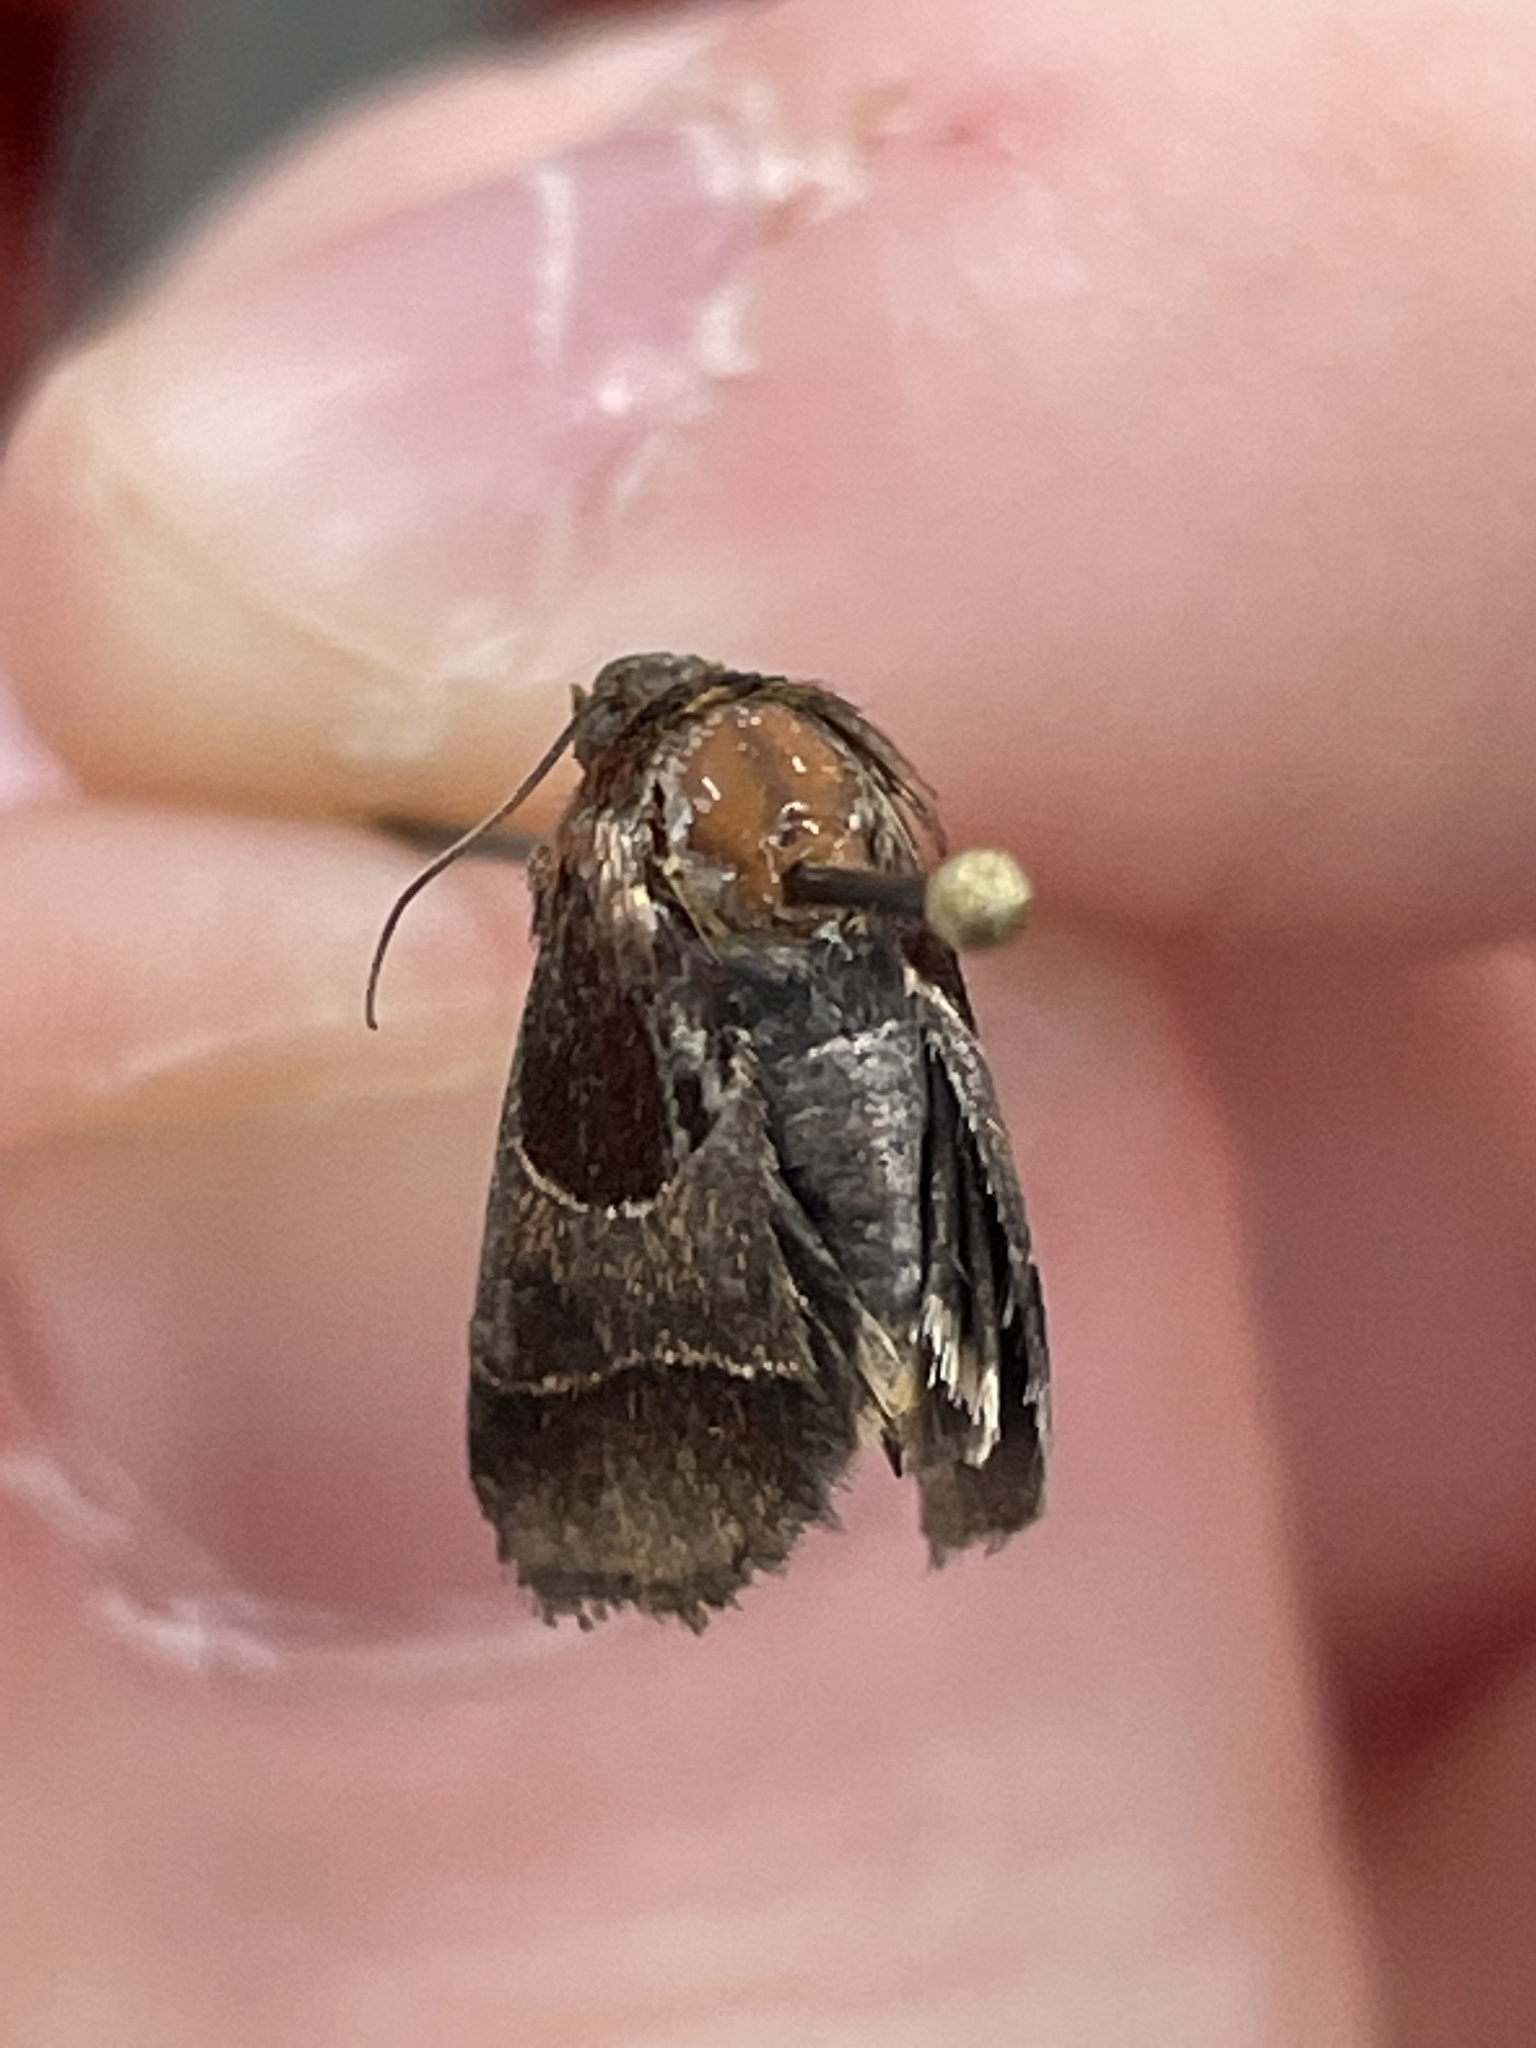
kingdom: Animalia
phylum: Arthropoda
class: Insecta
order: Lepidoptera
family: Noctuidae
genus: Schinia
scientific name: Schinia arcigera
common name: Arcigera flower moth
